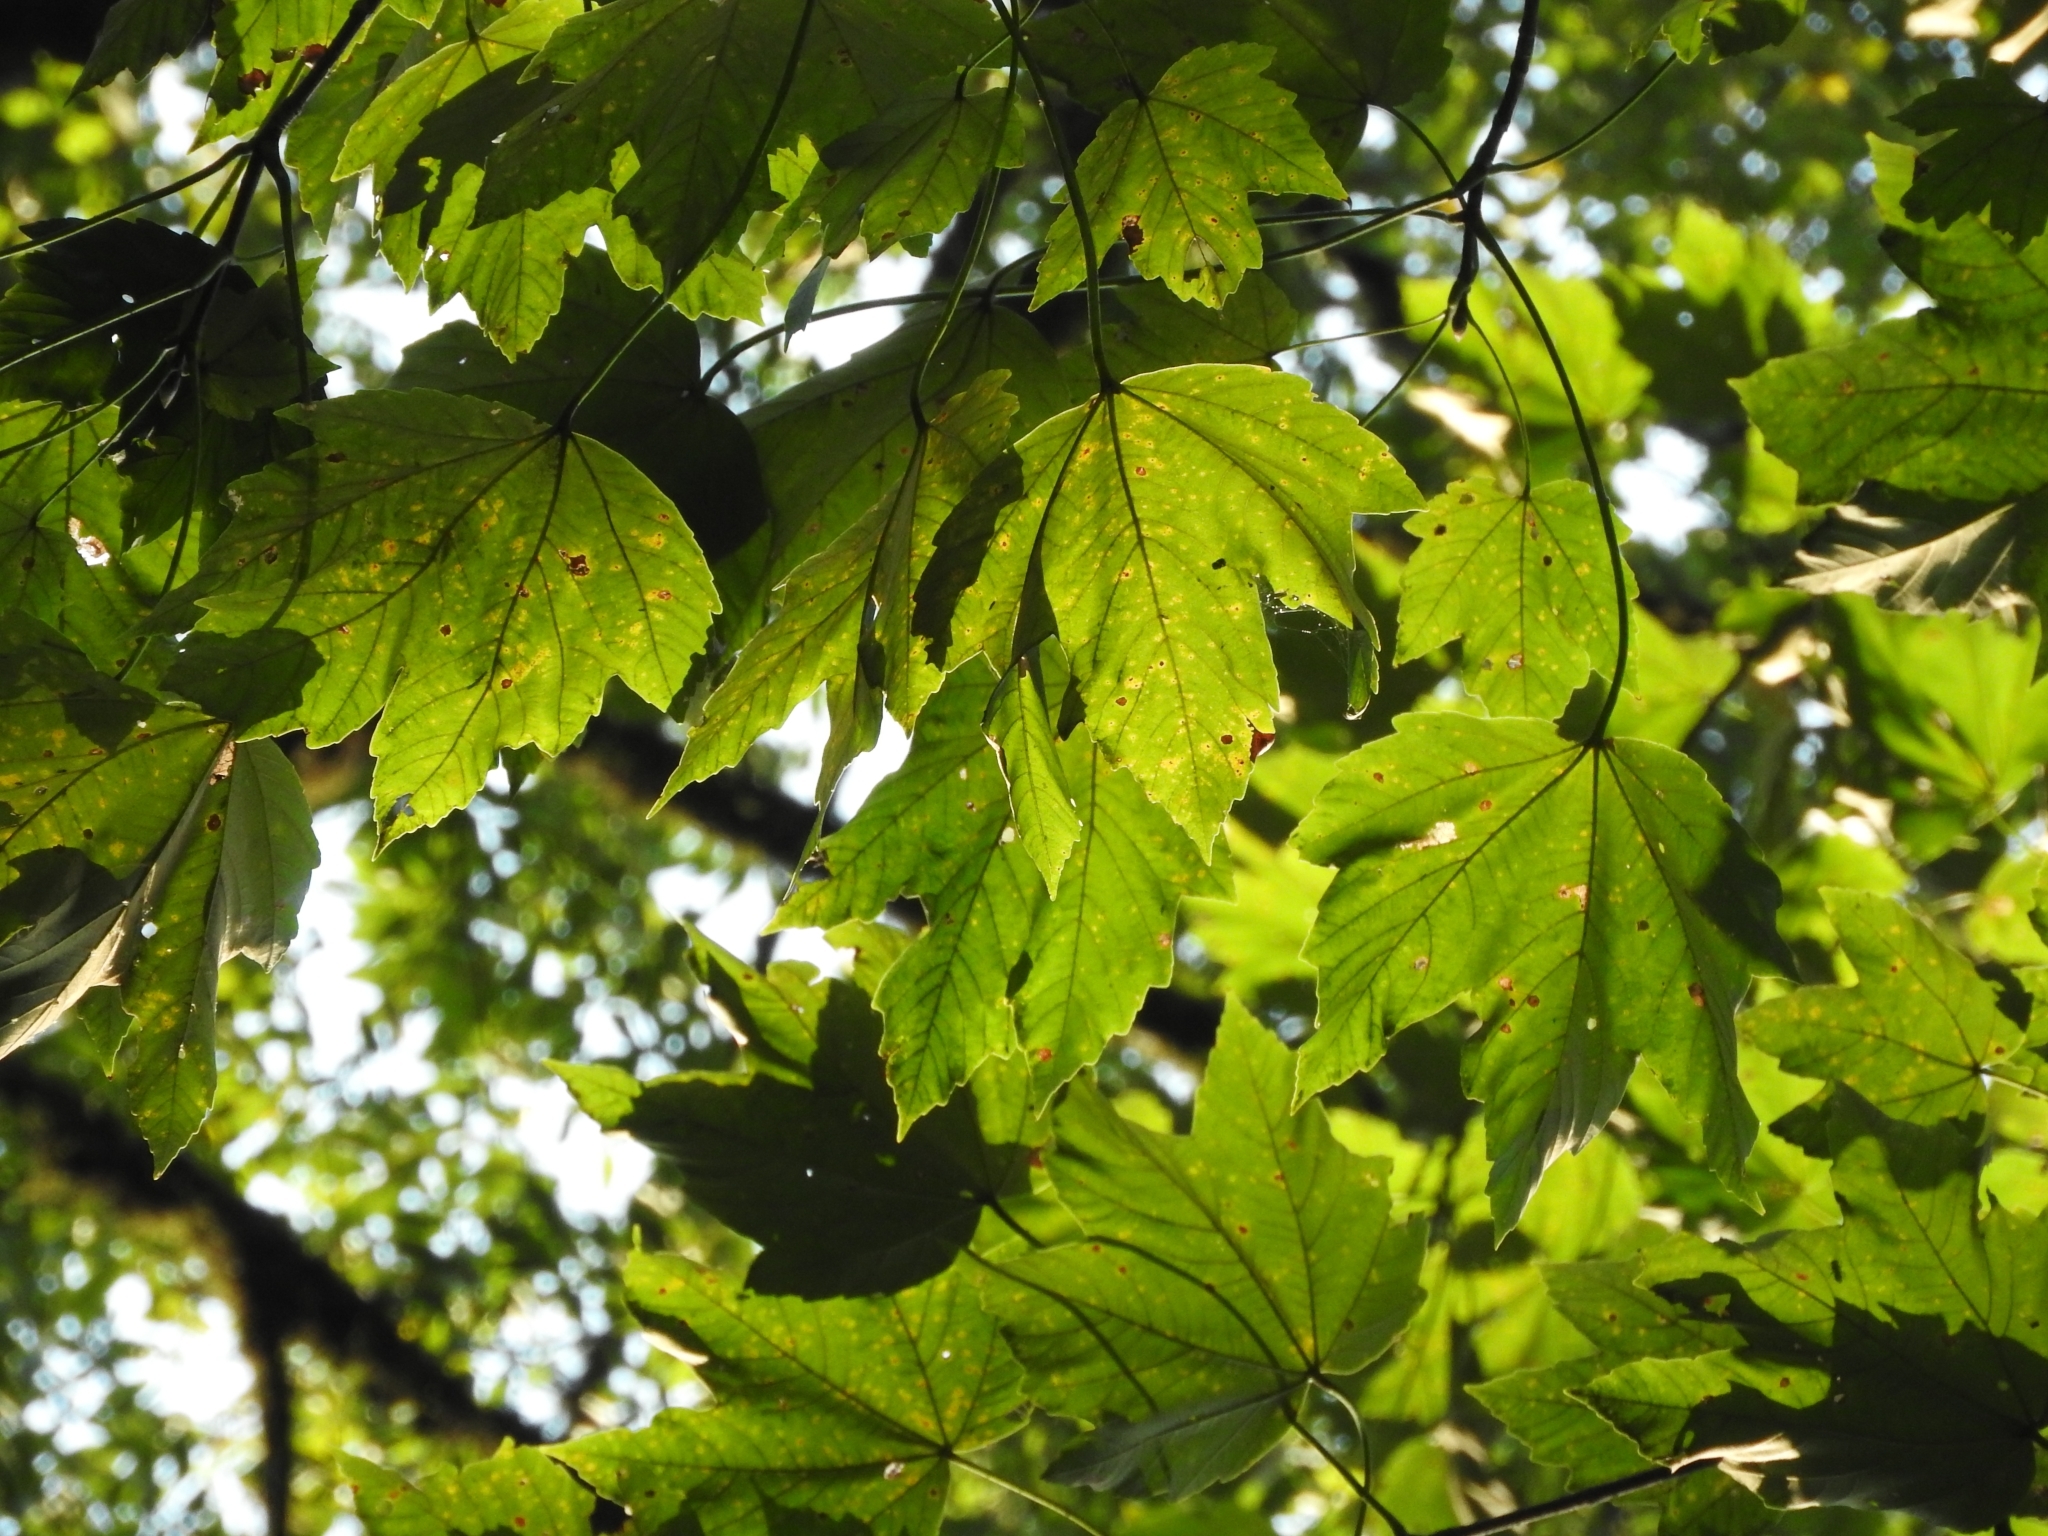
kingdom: Plantae
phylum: Tracheophyta
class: Magnoliopsida
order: Sapindales
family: Sapindaceae
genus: Acer
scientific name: Acer velutinum
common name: Velvet maple
